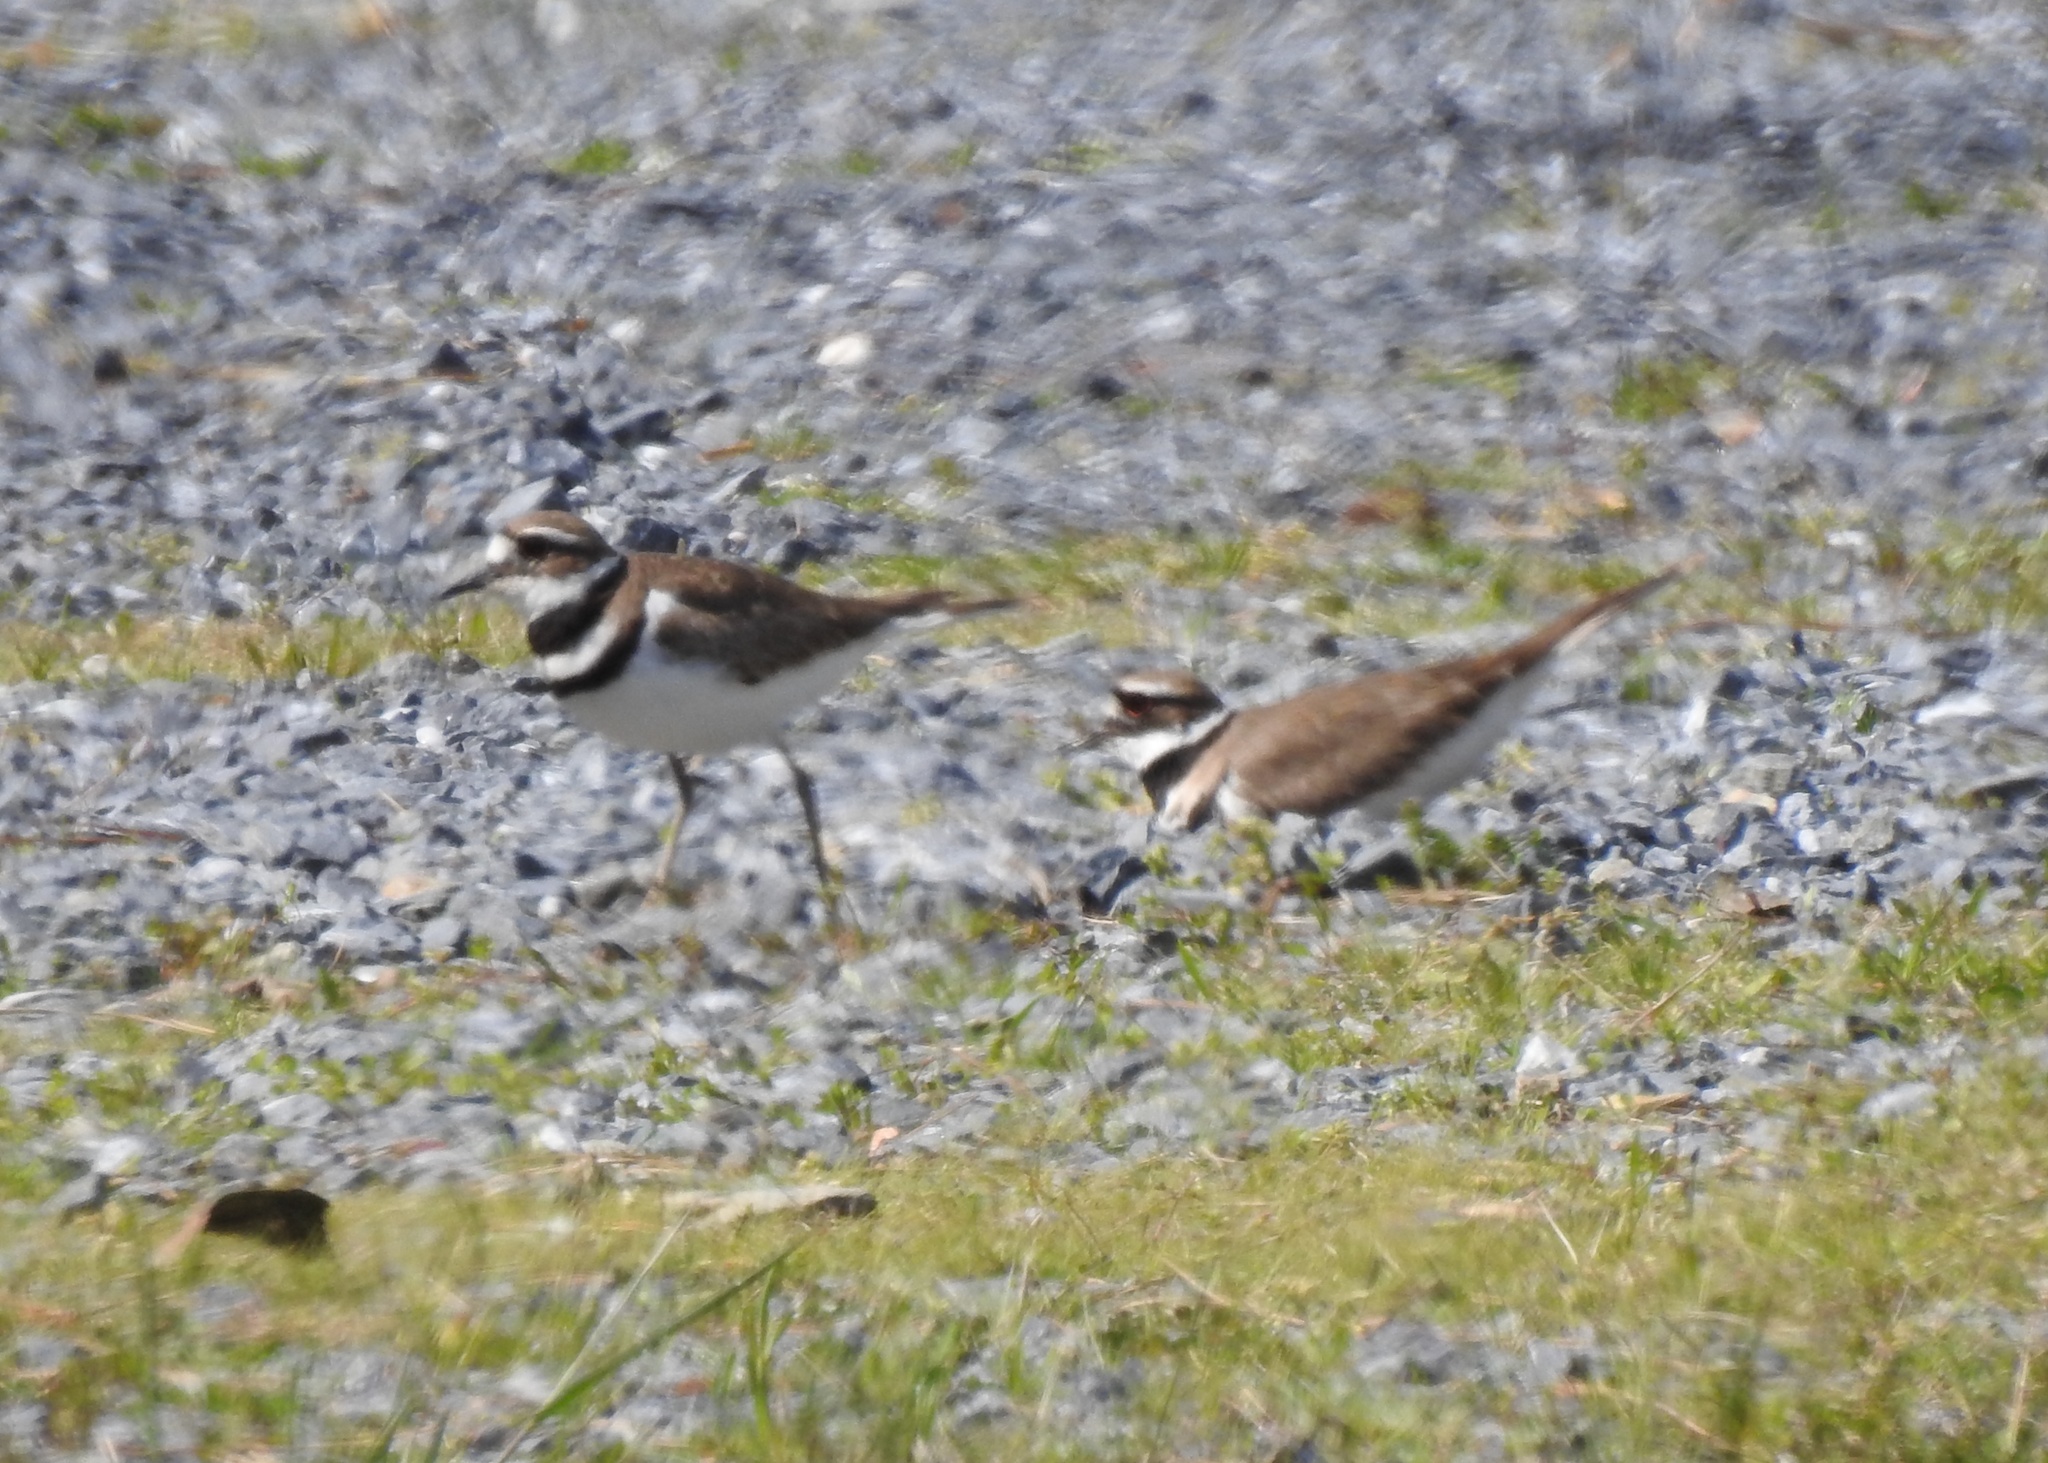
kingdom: Animalia
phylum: Chordata
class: Aves
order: Charadriiformes
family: Charadriidae
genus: Charadrius
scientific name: Charadrius vociferus
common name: Killdeer
